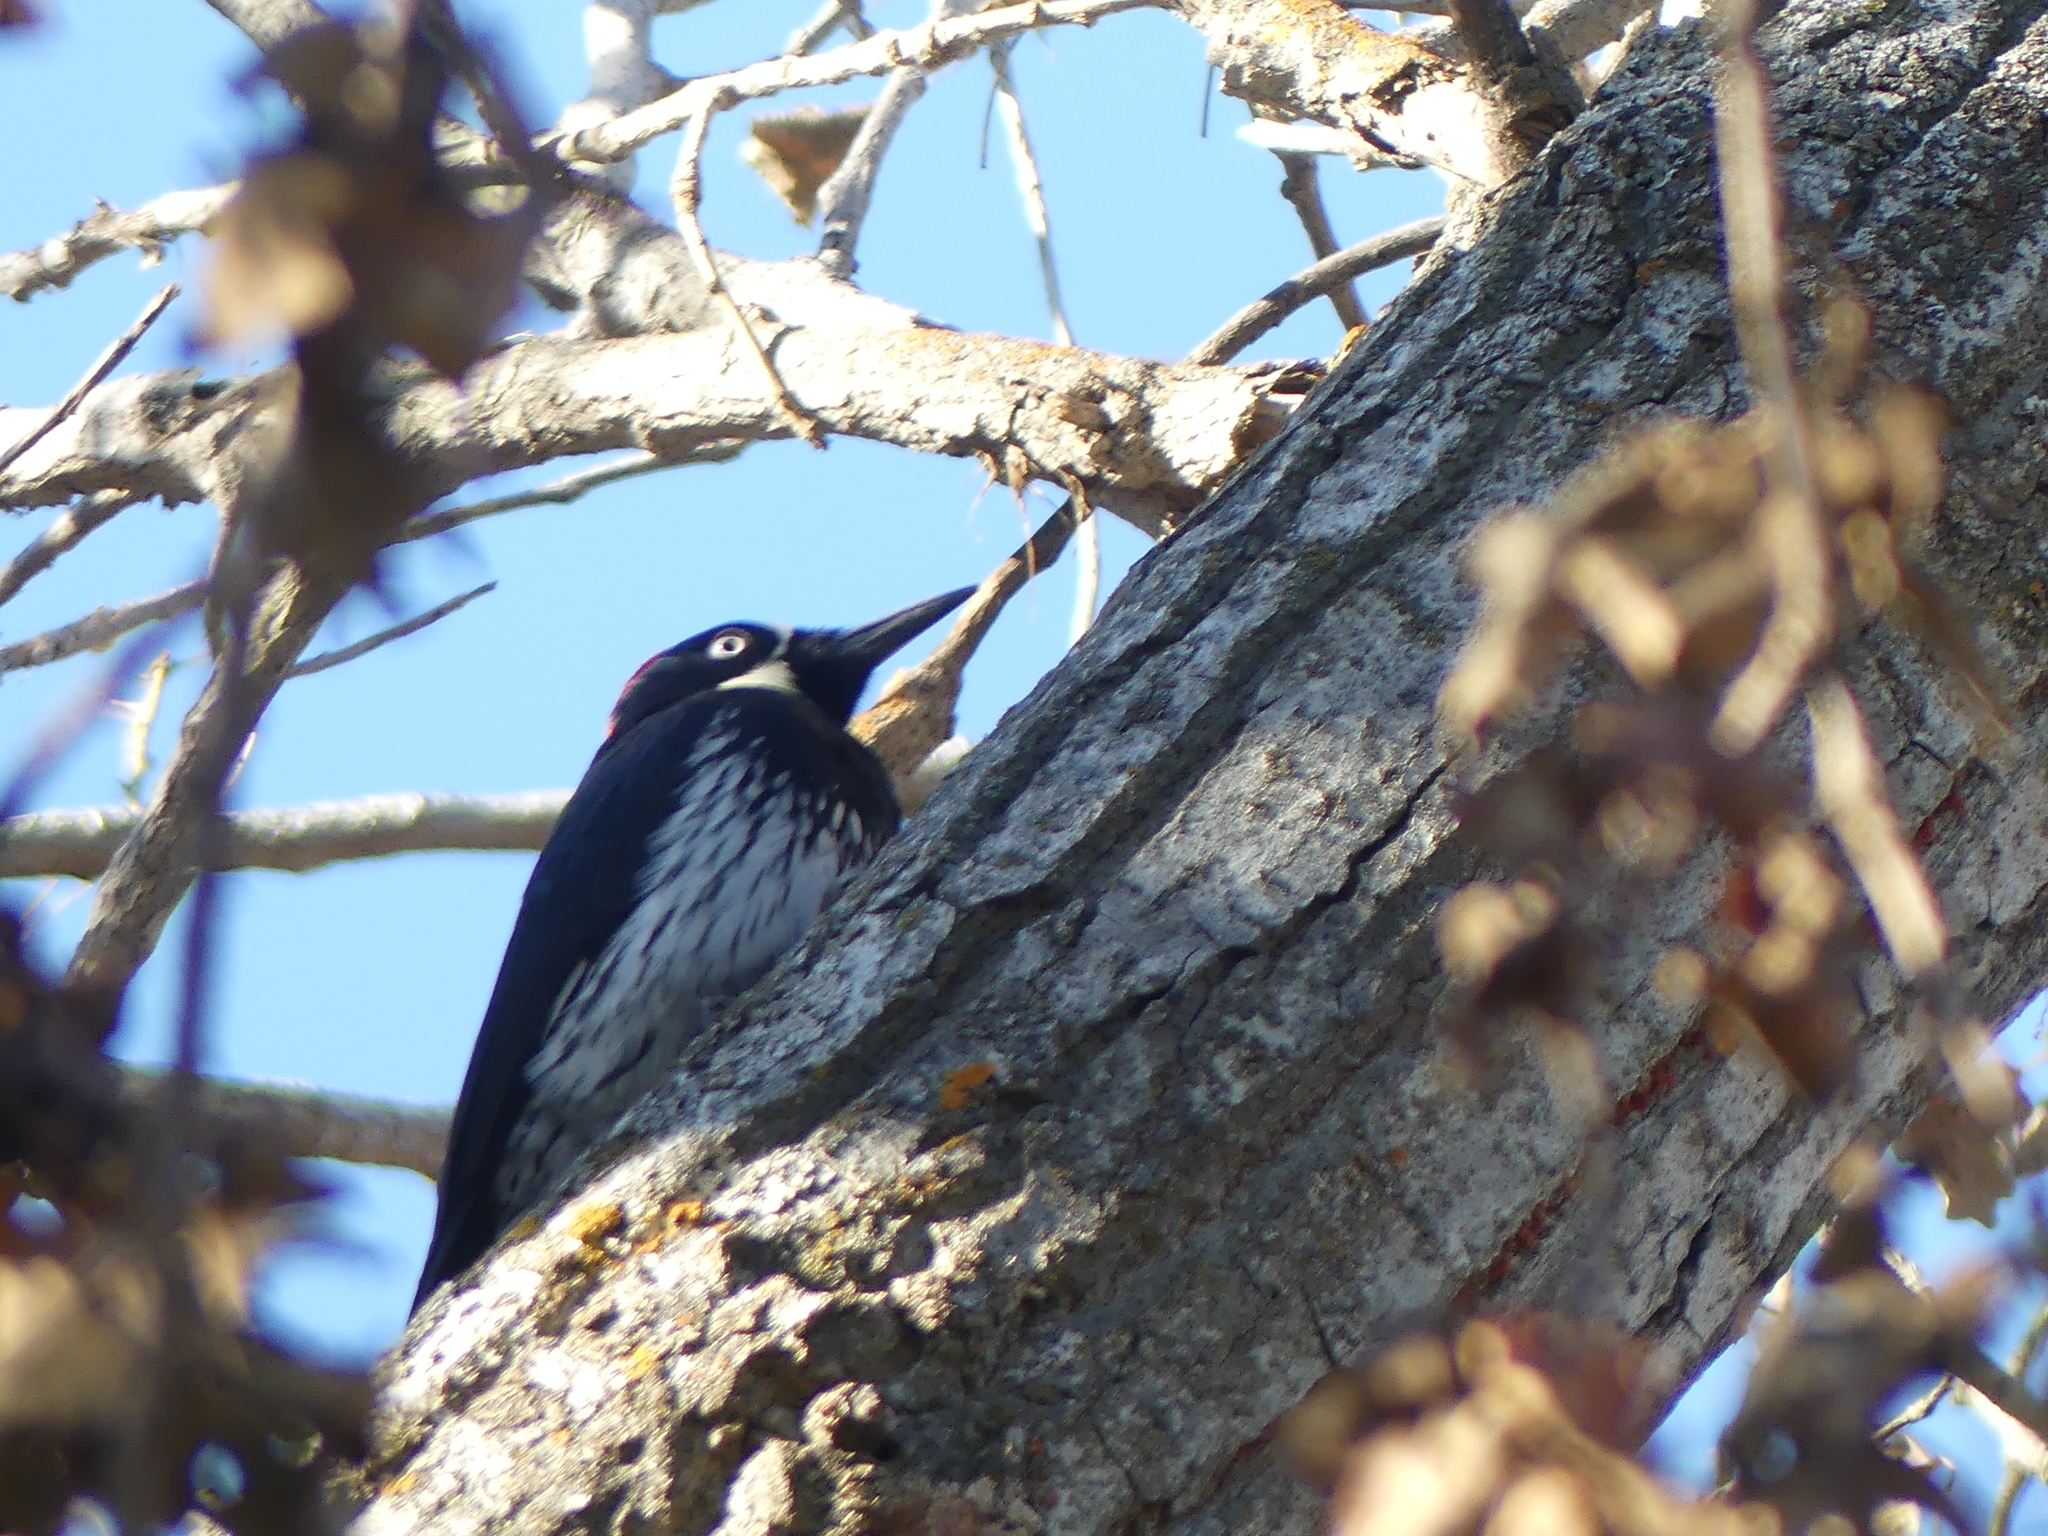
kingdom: Animalia
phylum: Chordata
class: Aves
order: Piciformes
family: Picidae
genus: Melanerpes
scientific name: Melanerpes formicivorus
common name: Acorn woodpecker
